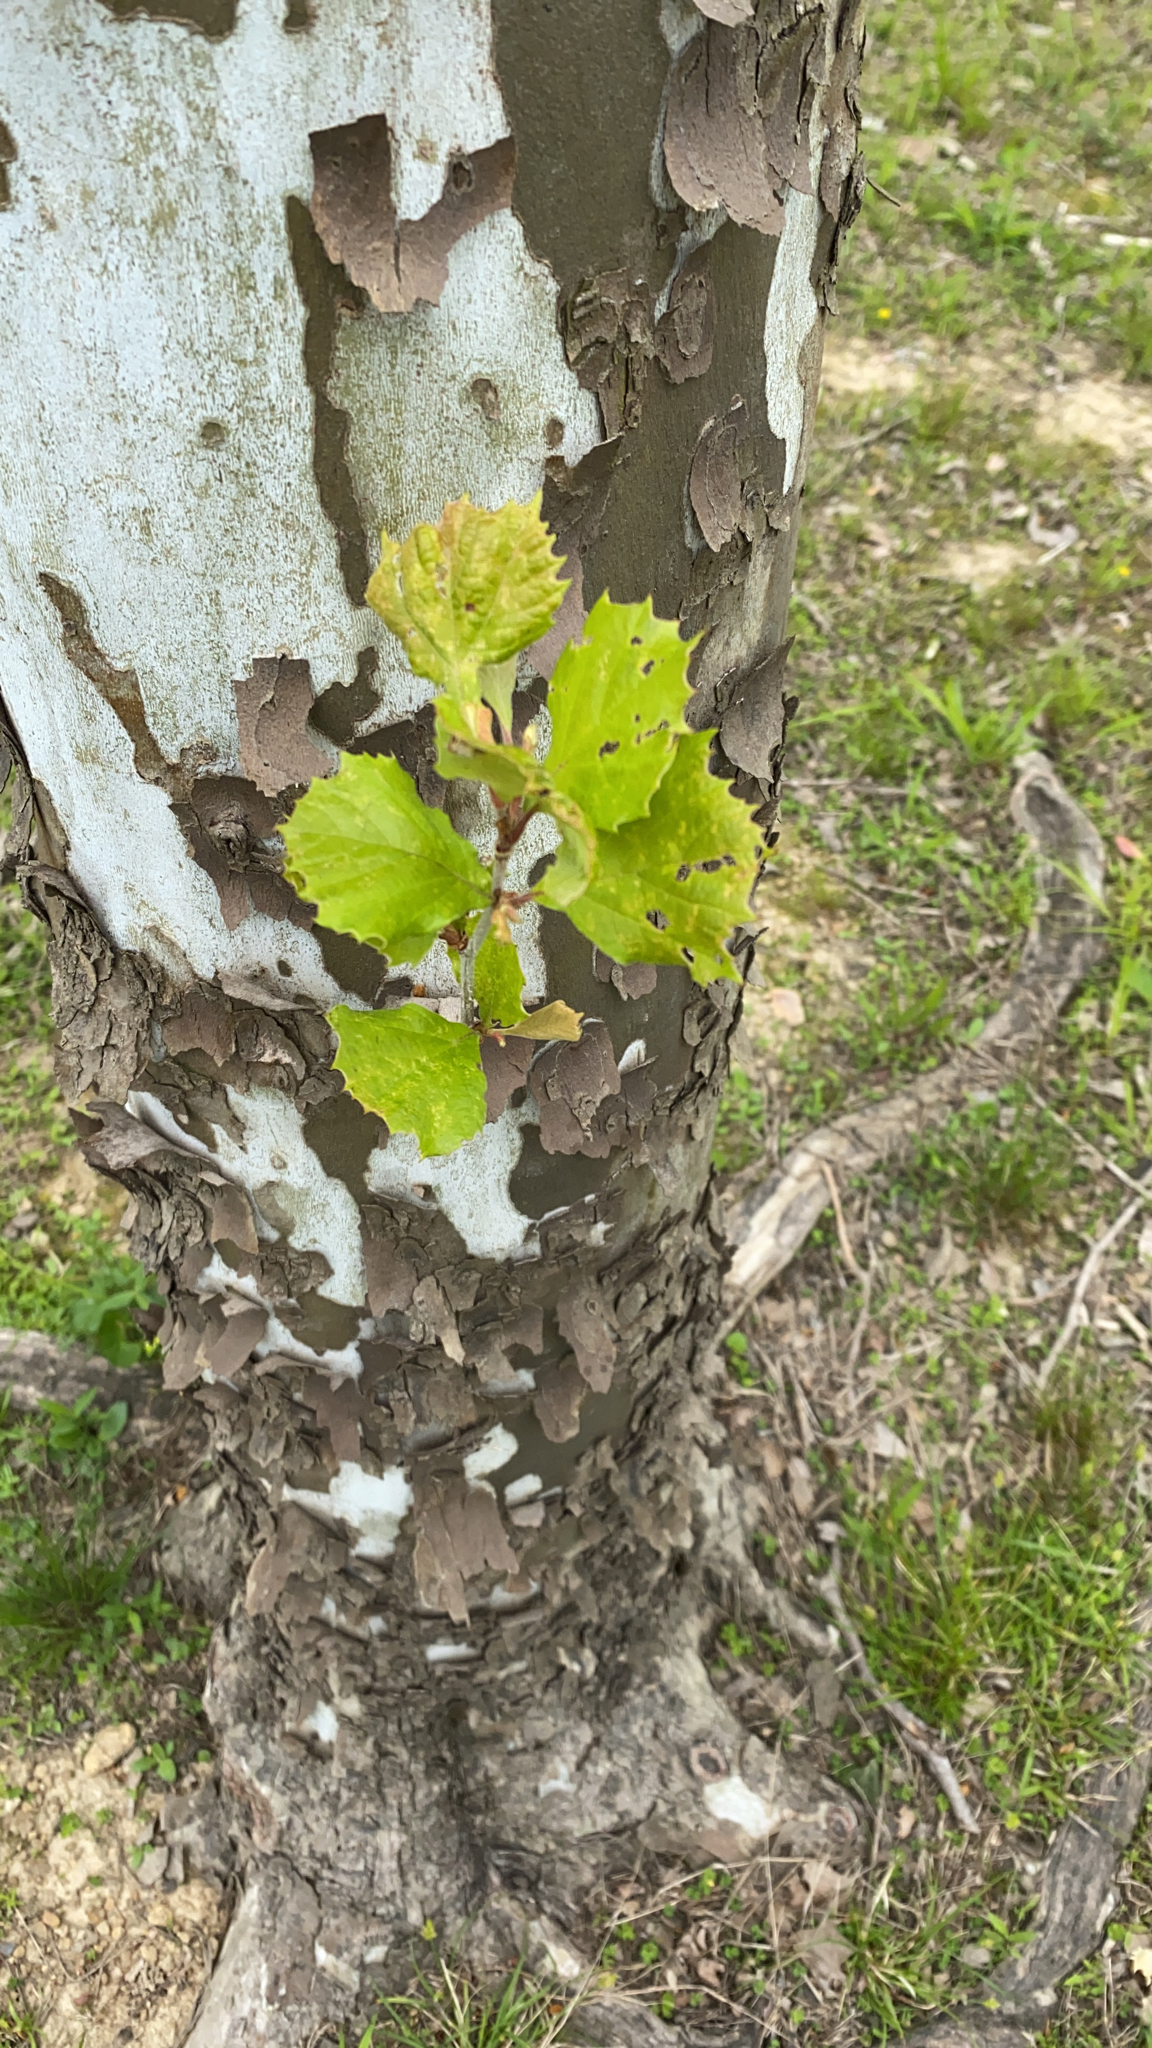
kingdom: Plantae
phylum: Tracheophyta
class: Magnoliopsida
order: Proteales
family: Platanaceae
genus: Platanus
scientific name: Platanus occidentalis
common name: American sycamore
